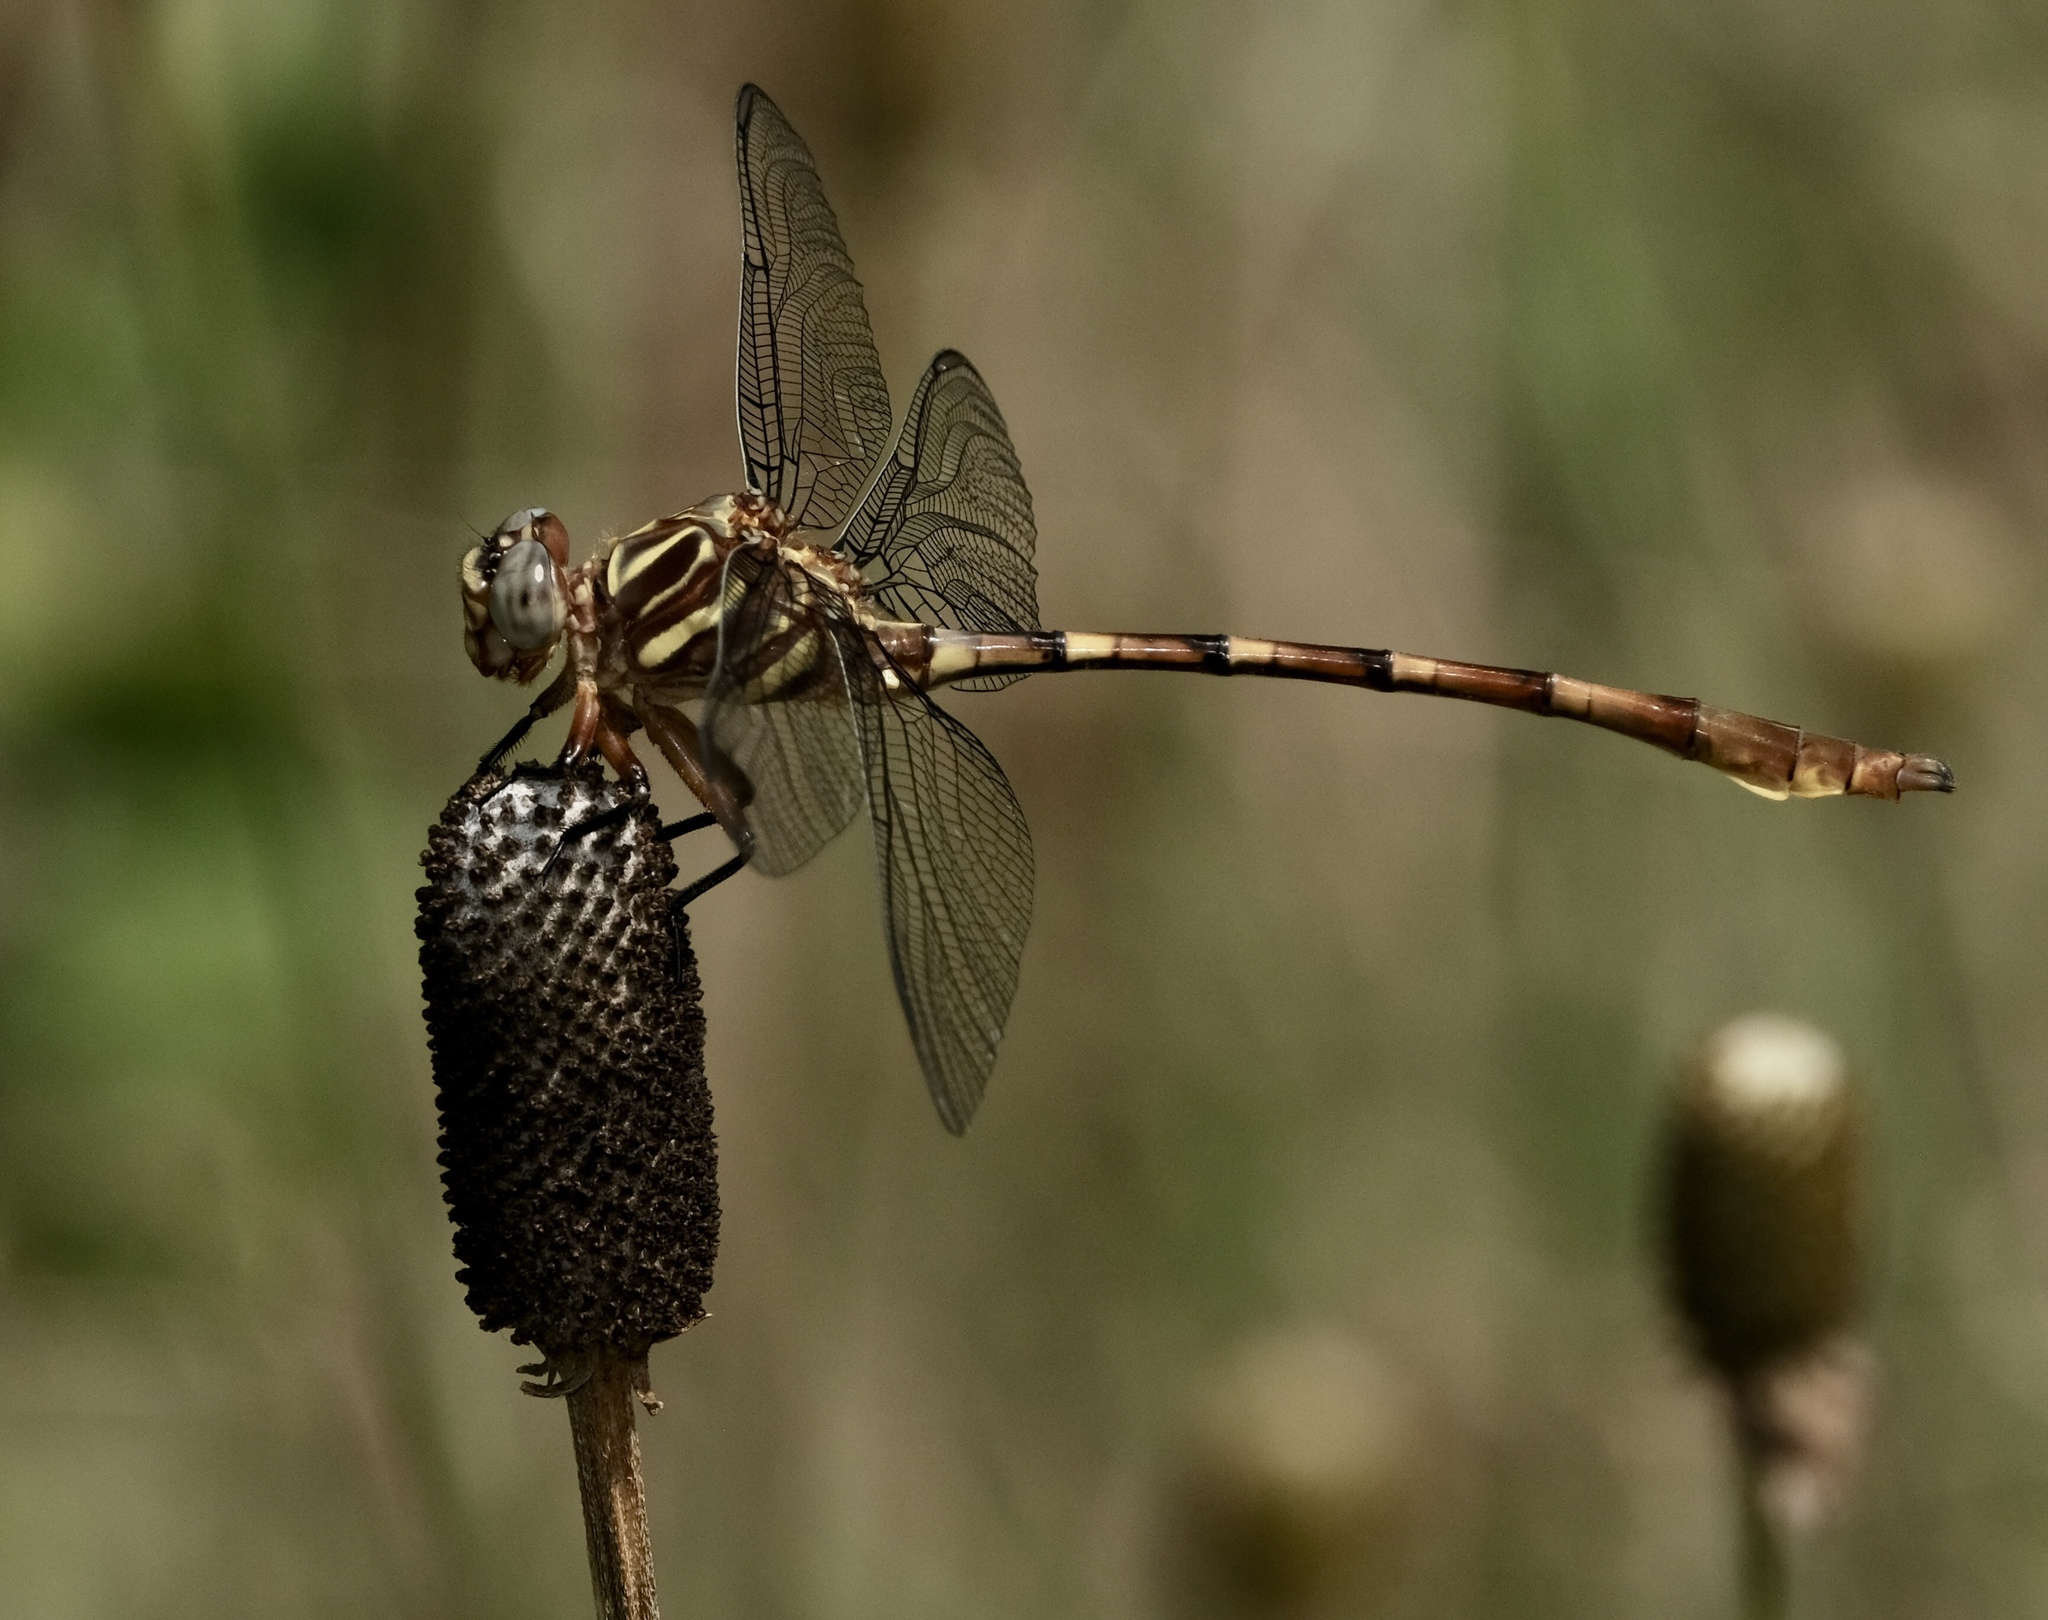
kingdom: Animalia
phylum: Arthropoda
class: Insecta
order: Odonata
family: Gomphidae
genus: Aphylla
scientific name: Aphylla angustifolia
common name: Broad-striped forceptail
